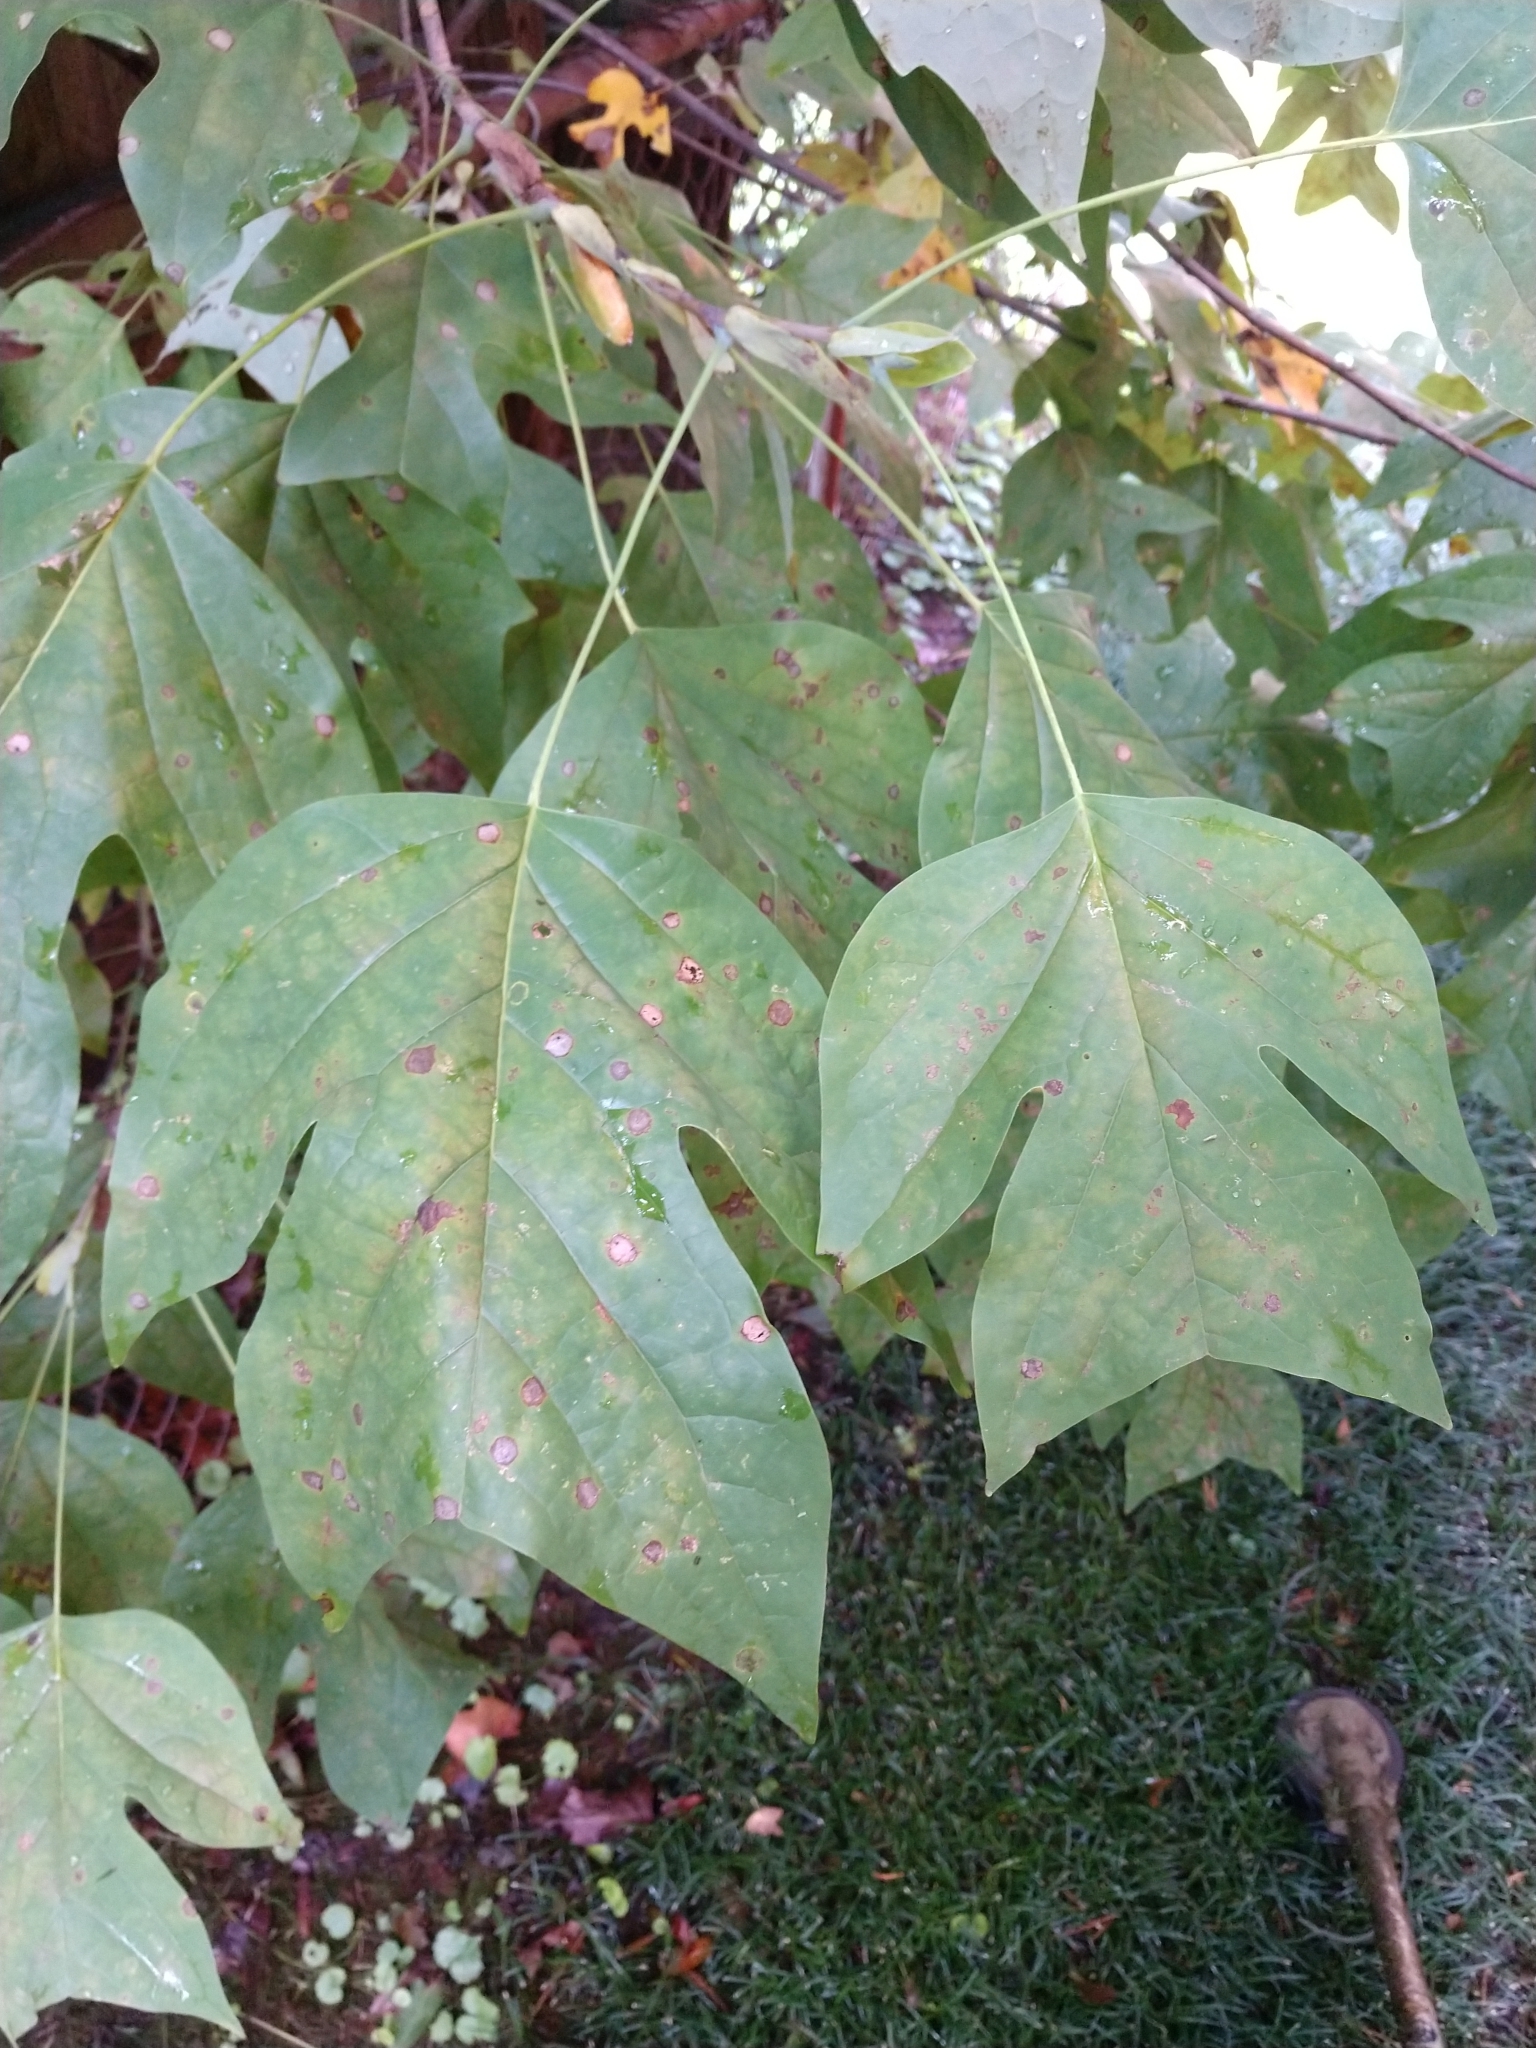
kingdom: Plantae
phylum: Tracheophyta
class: Magnoliopsida
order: Magnoliales
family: Magnoliaceae
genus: Liriodendron
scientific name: Liriodendron tulipifera
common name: Tulip tree
